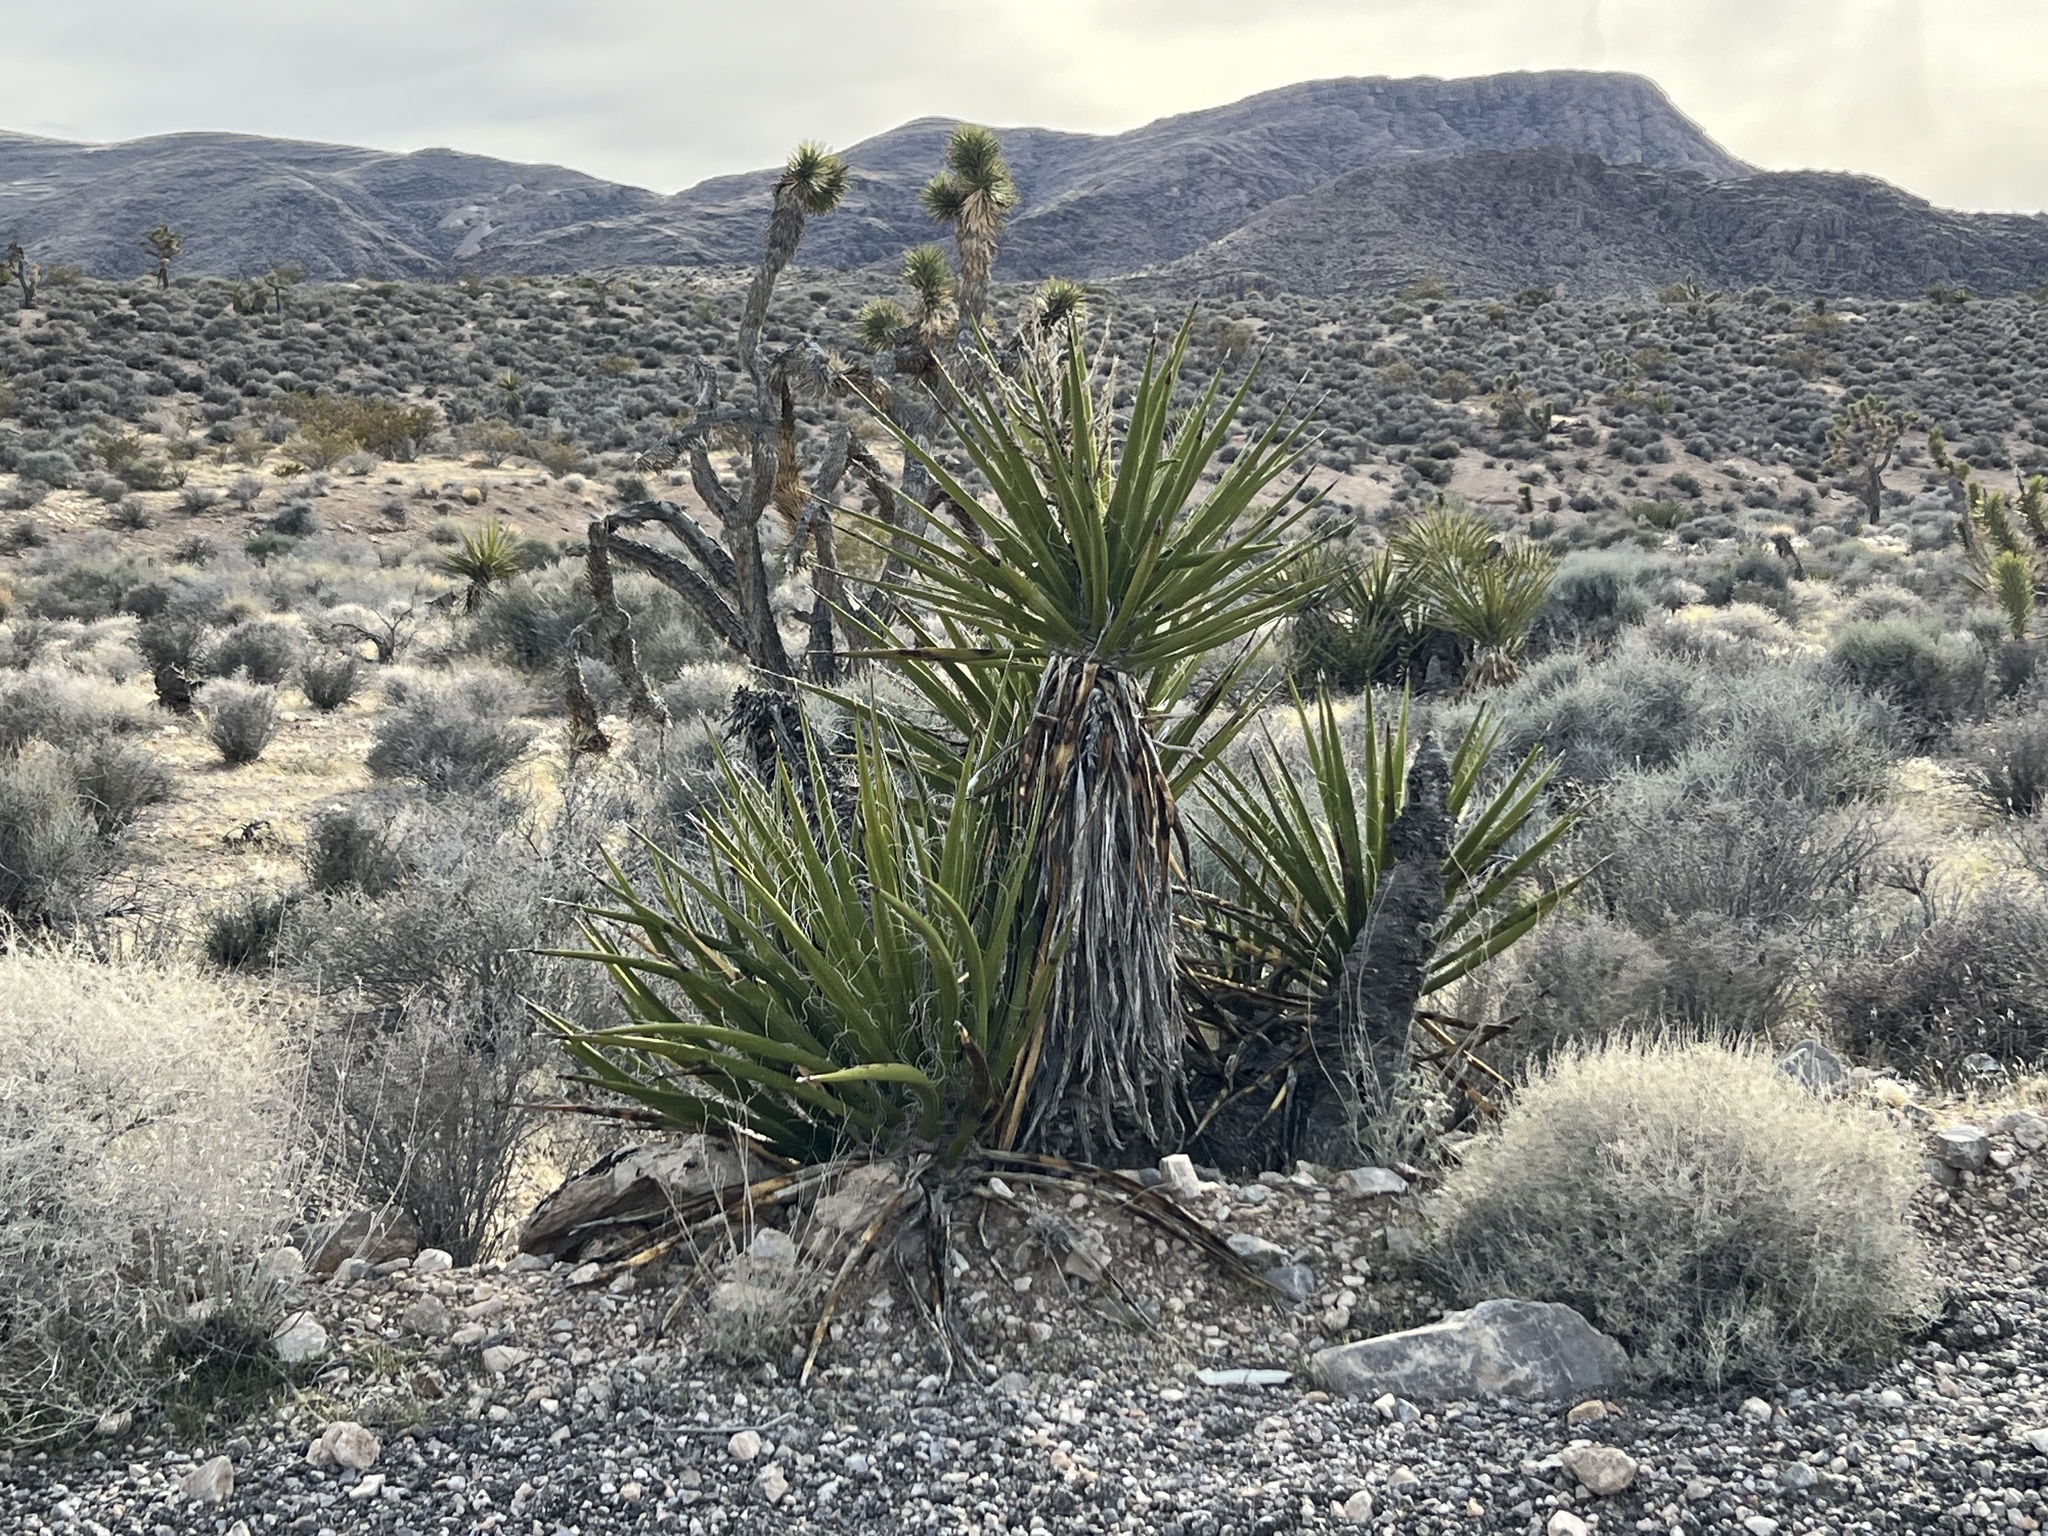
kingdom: Plantae
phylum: Tracheophyta
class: Liliopsida
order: Asparagales
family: Asparagaceae
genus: Yucca
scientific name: Yucca schidigera
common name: Mojave yucca
